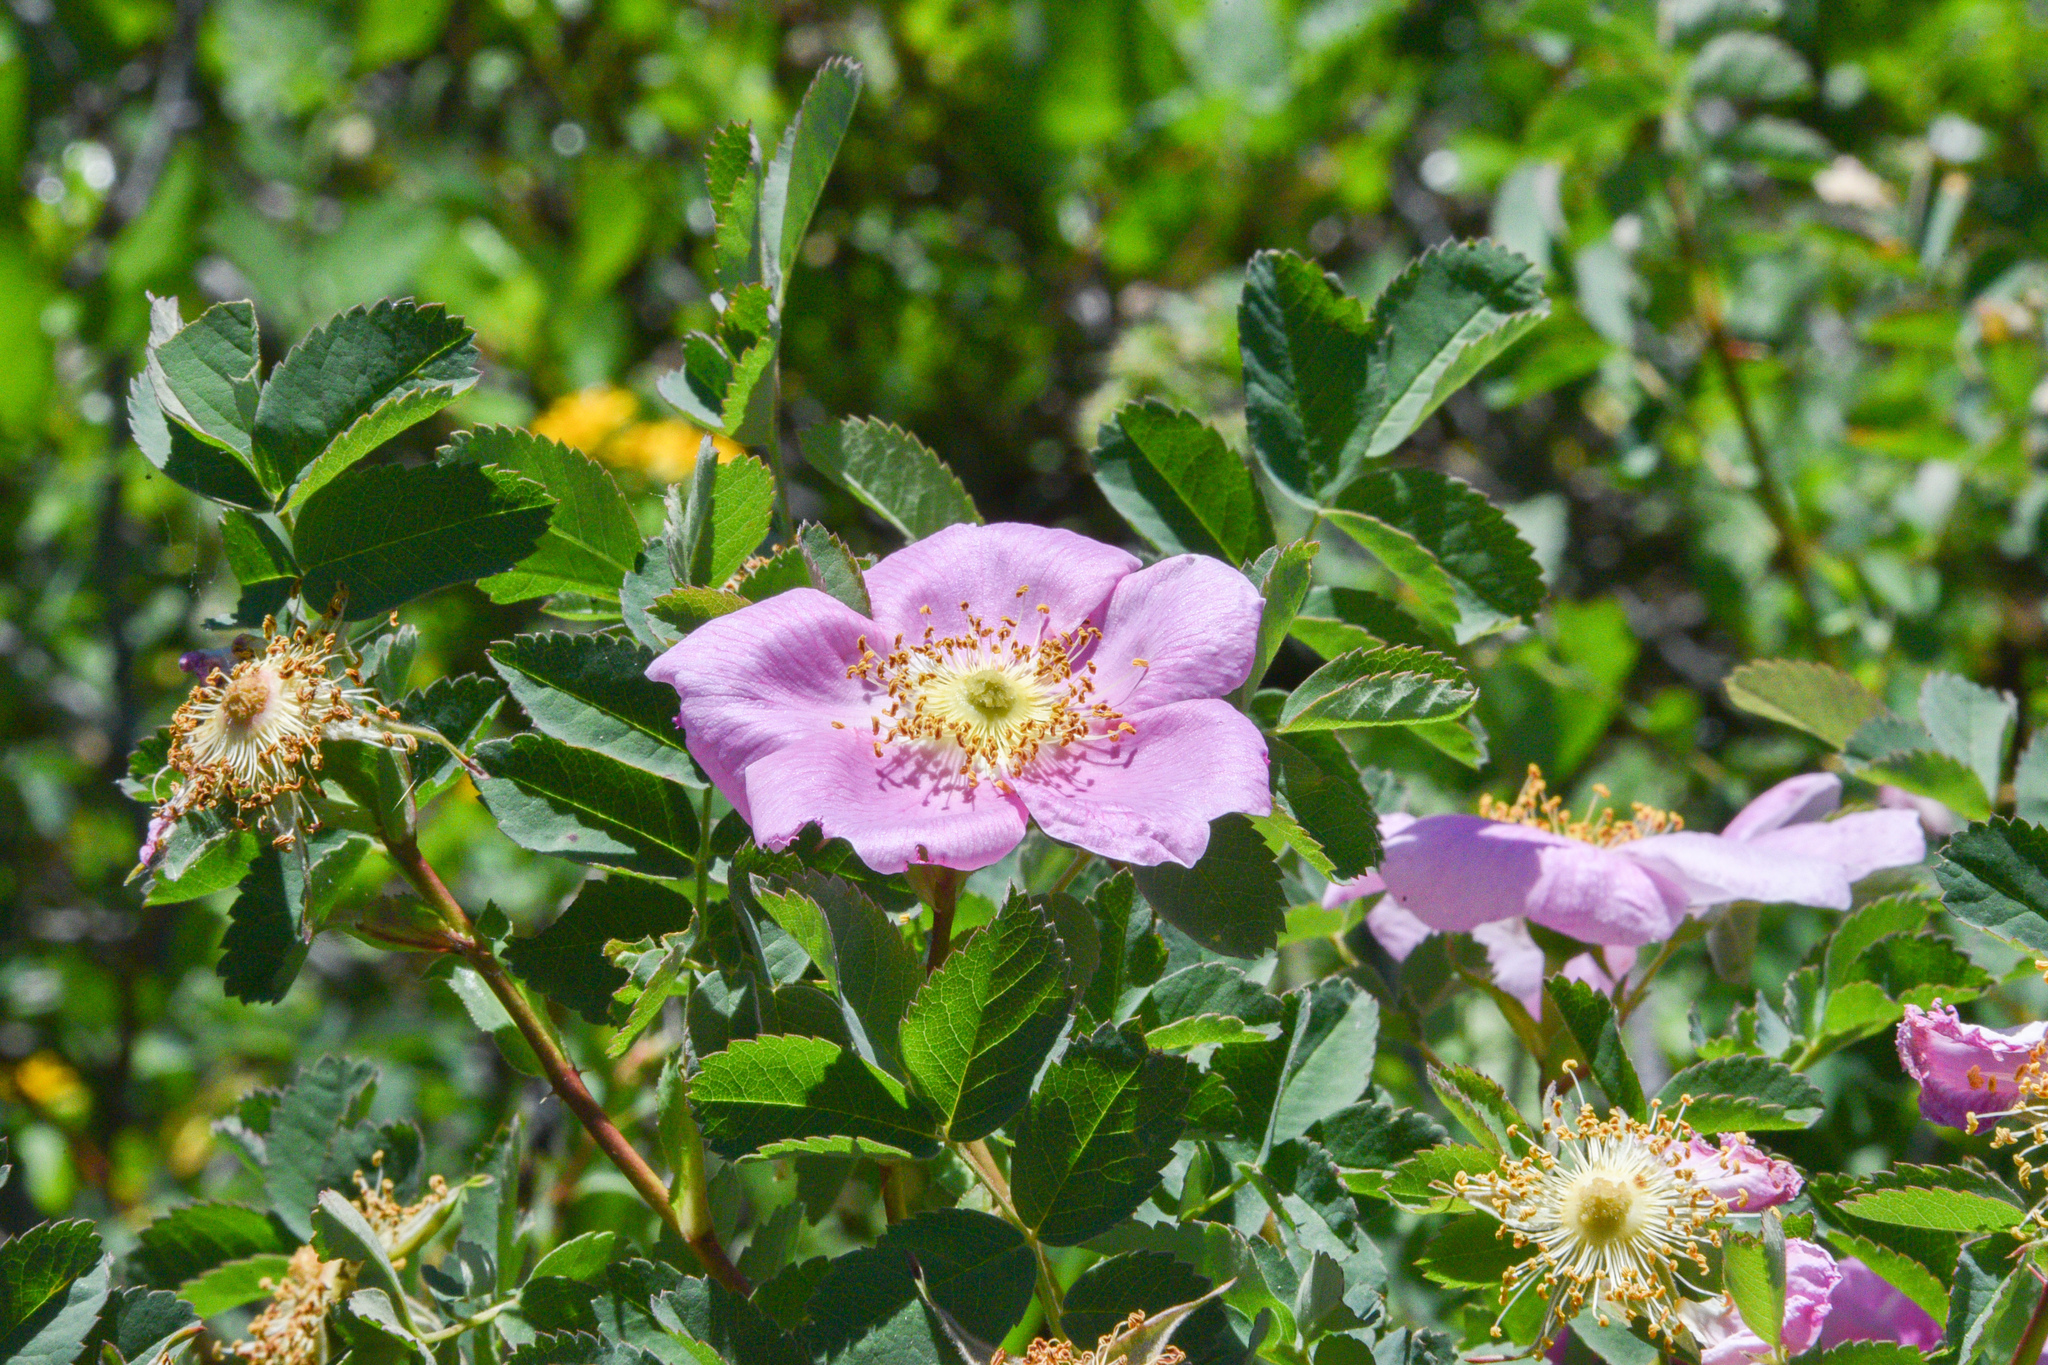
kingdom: Plantae
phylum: Tracheophyta
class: Magnoliopsida
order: Rosales
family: Rosaceae
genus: Rosa
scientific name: Rosa woodsii
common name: Woods's rose
